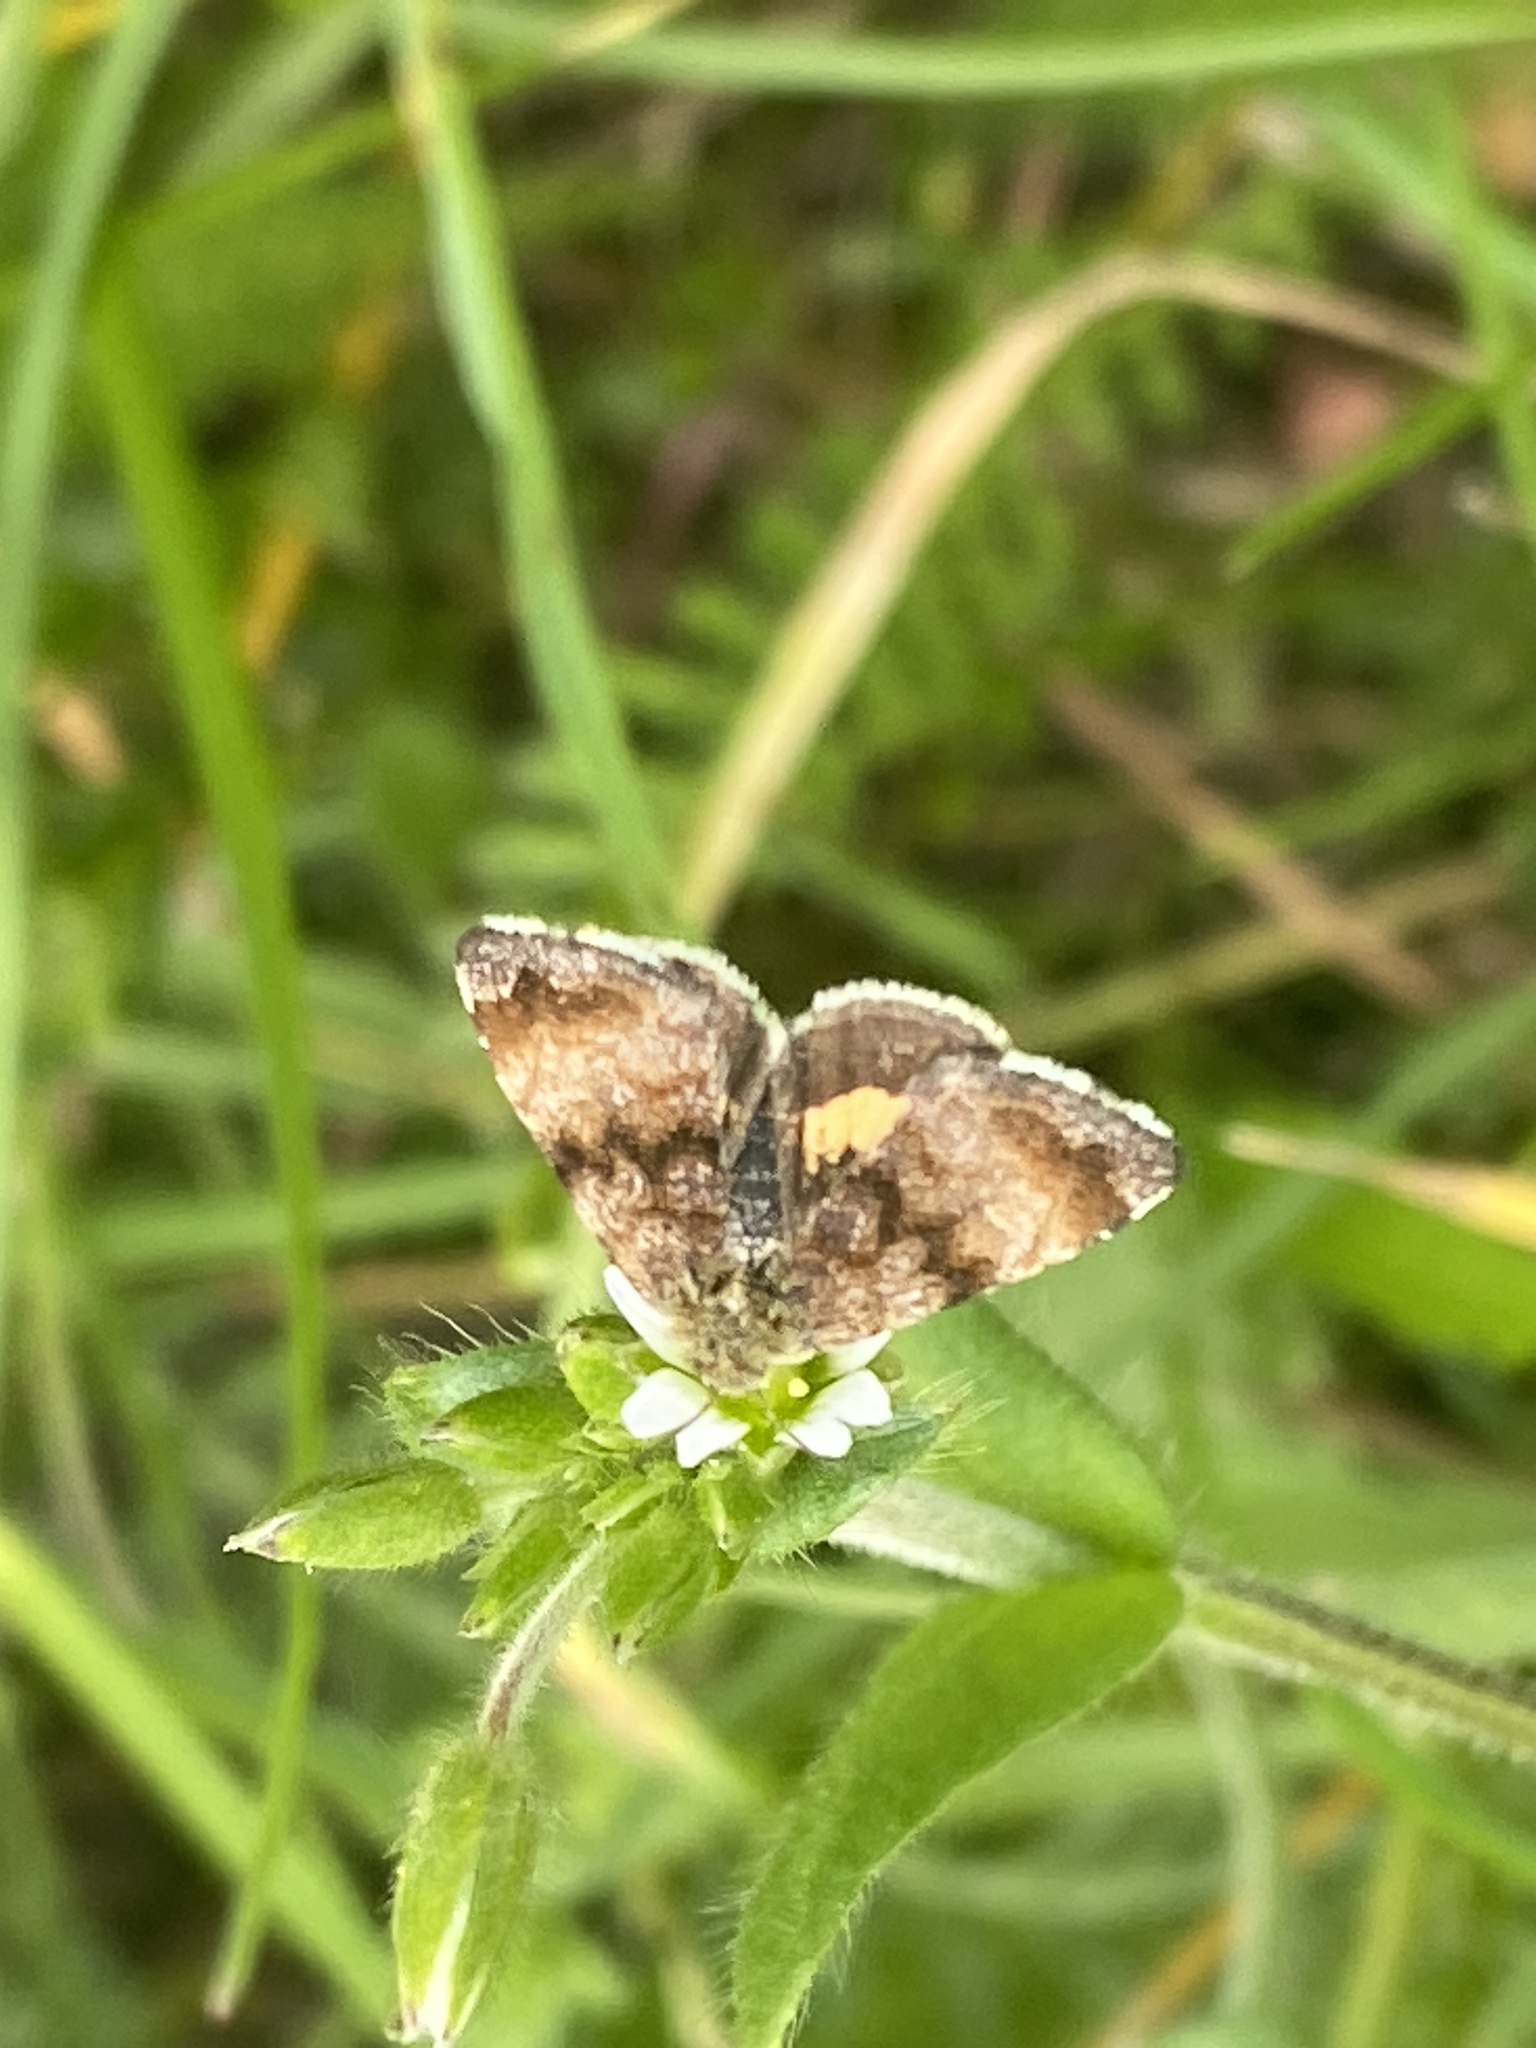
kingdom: Animalia
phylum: Arthropoda
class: Insecta
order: Lepidoptera
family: Noctuidae
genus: Panemeria
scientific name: Panemeria tenebrata
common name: Small yellow underwing
